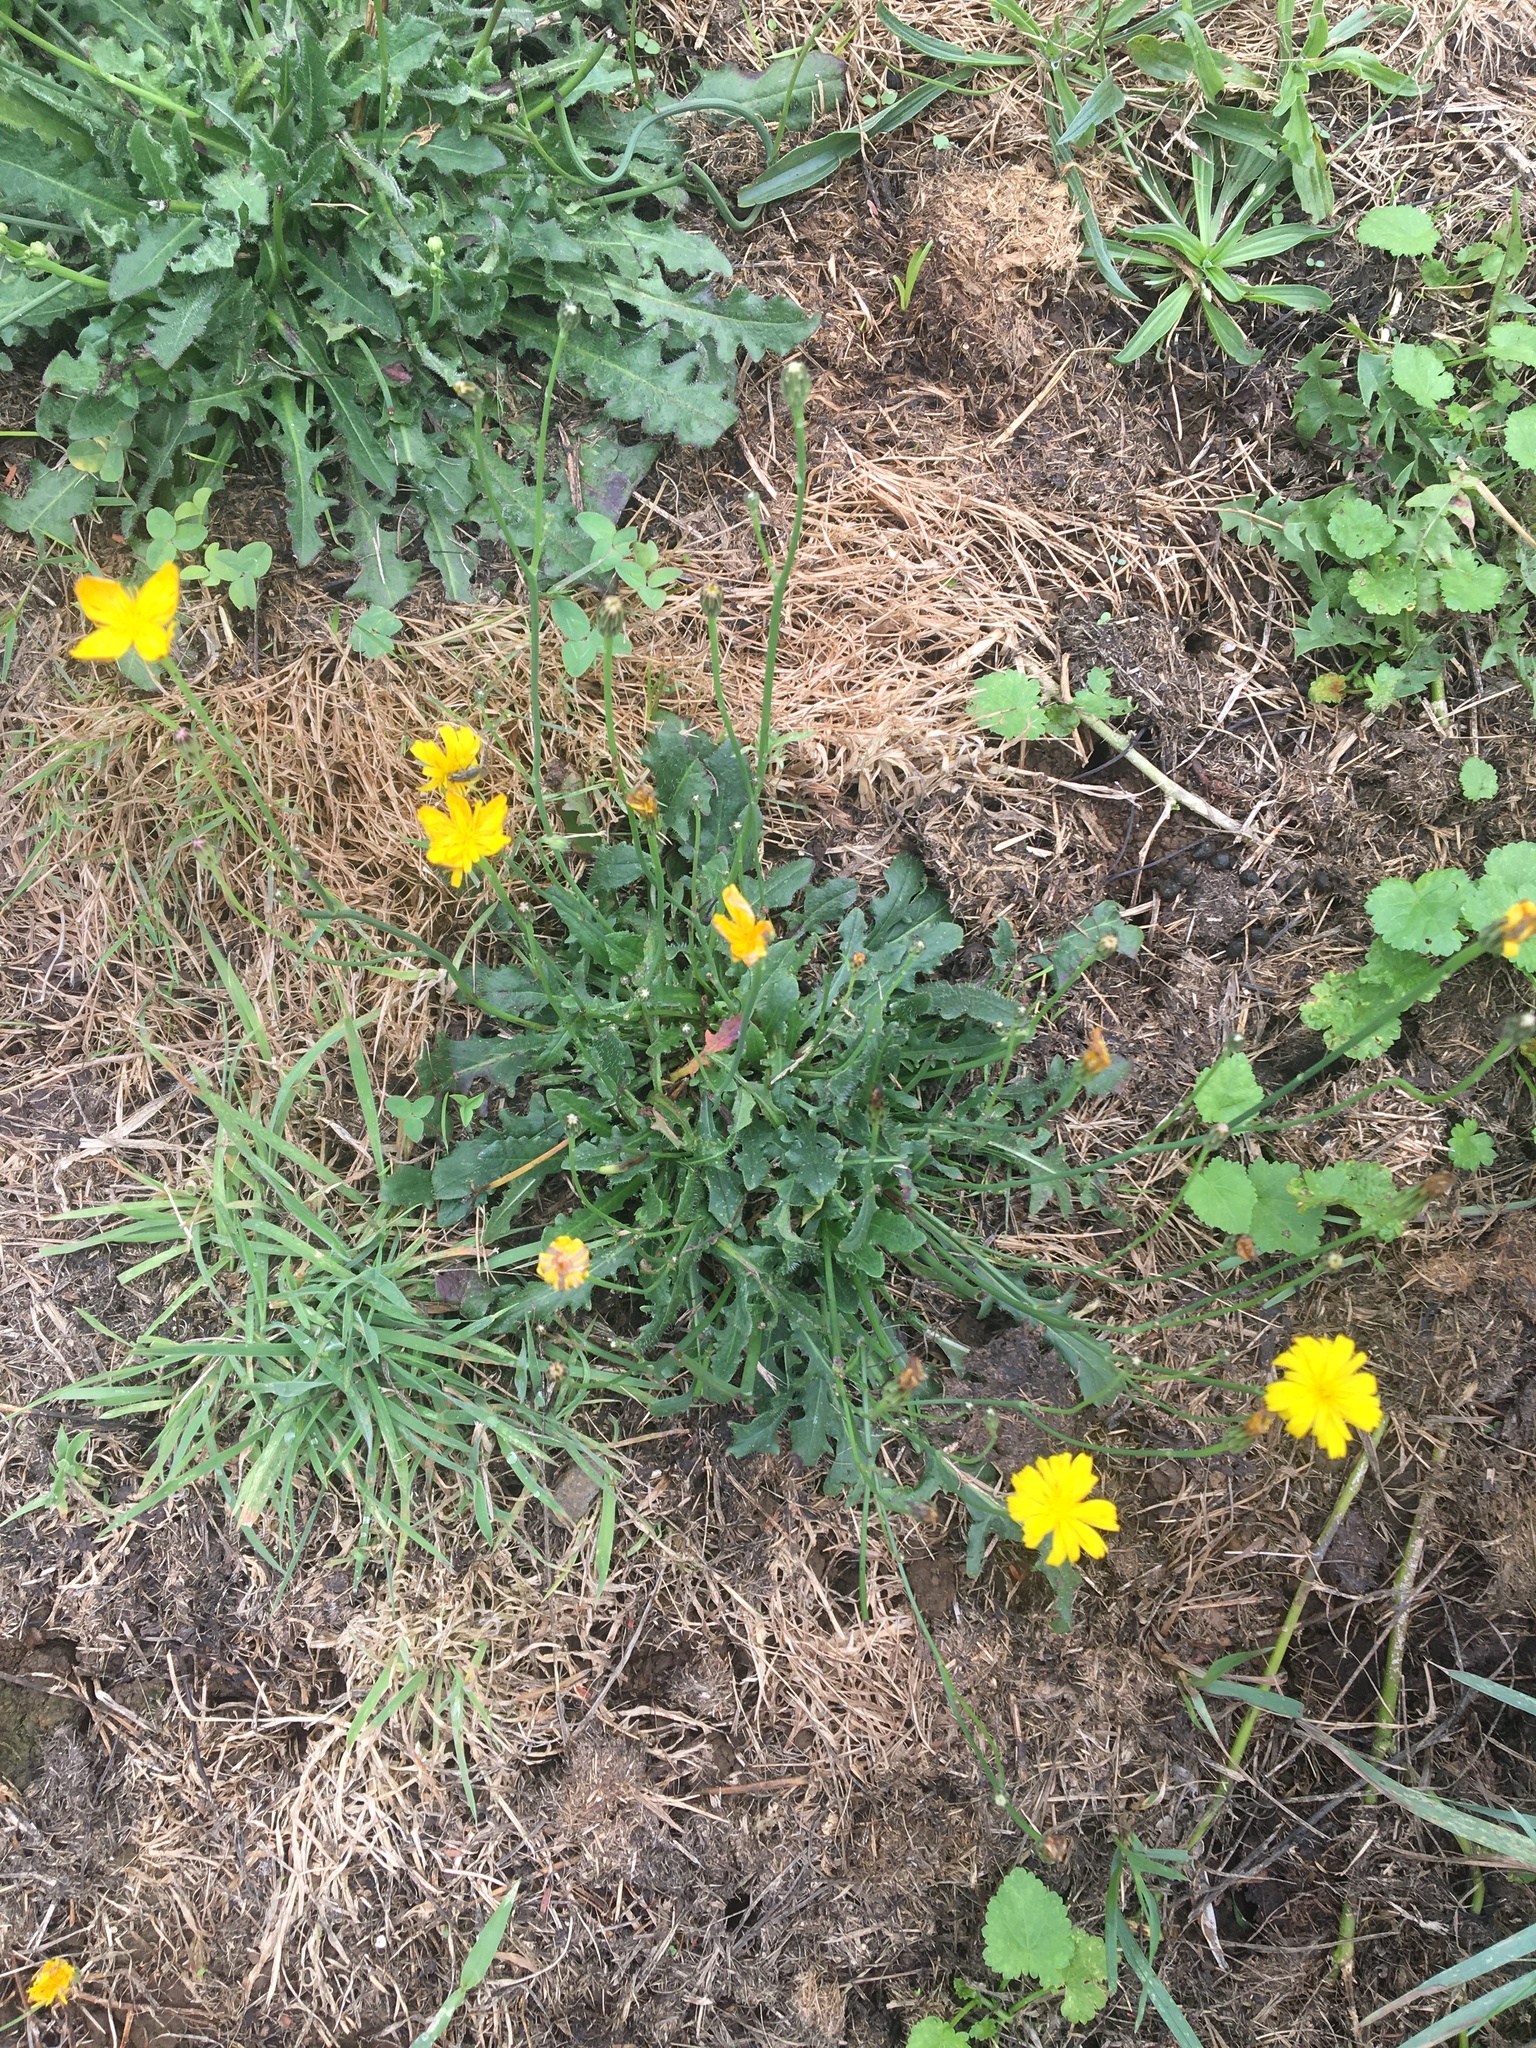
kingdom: Plantae
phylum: Tracheophyta
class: Magnoliopsida
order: Asterales
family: Asteraceae
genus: Hypochaeris
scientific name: Hypochaeris radicata
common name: Flatweed
